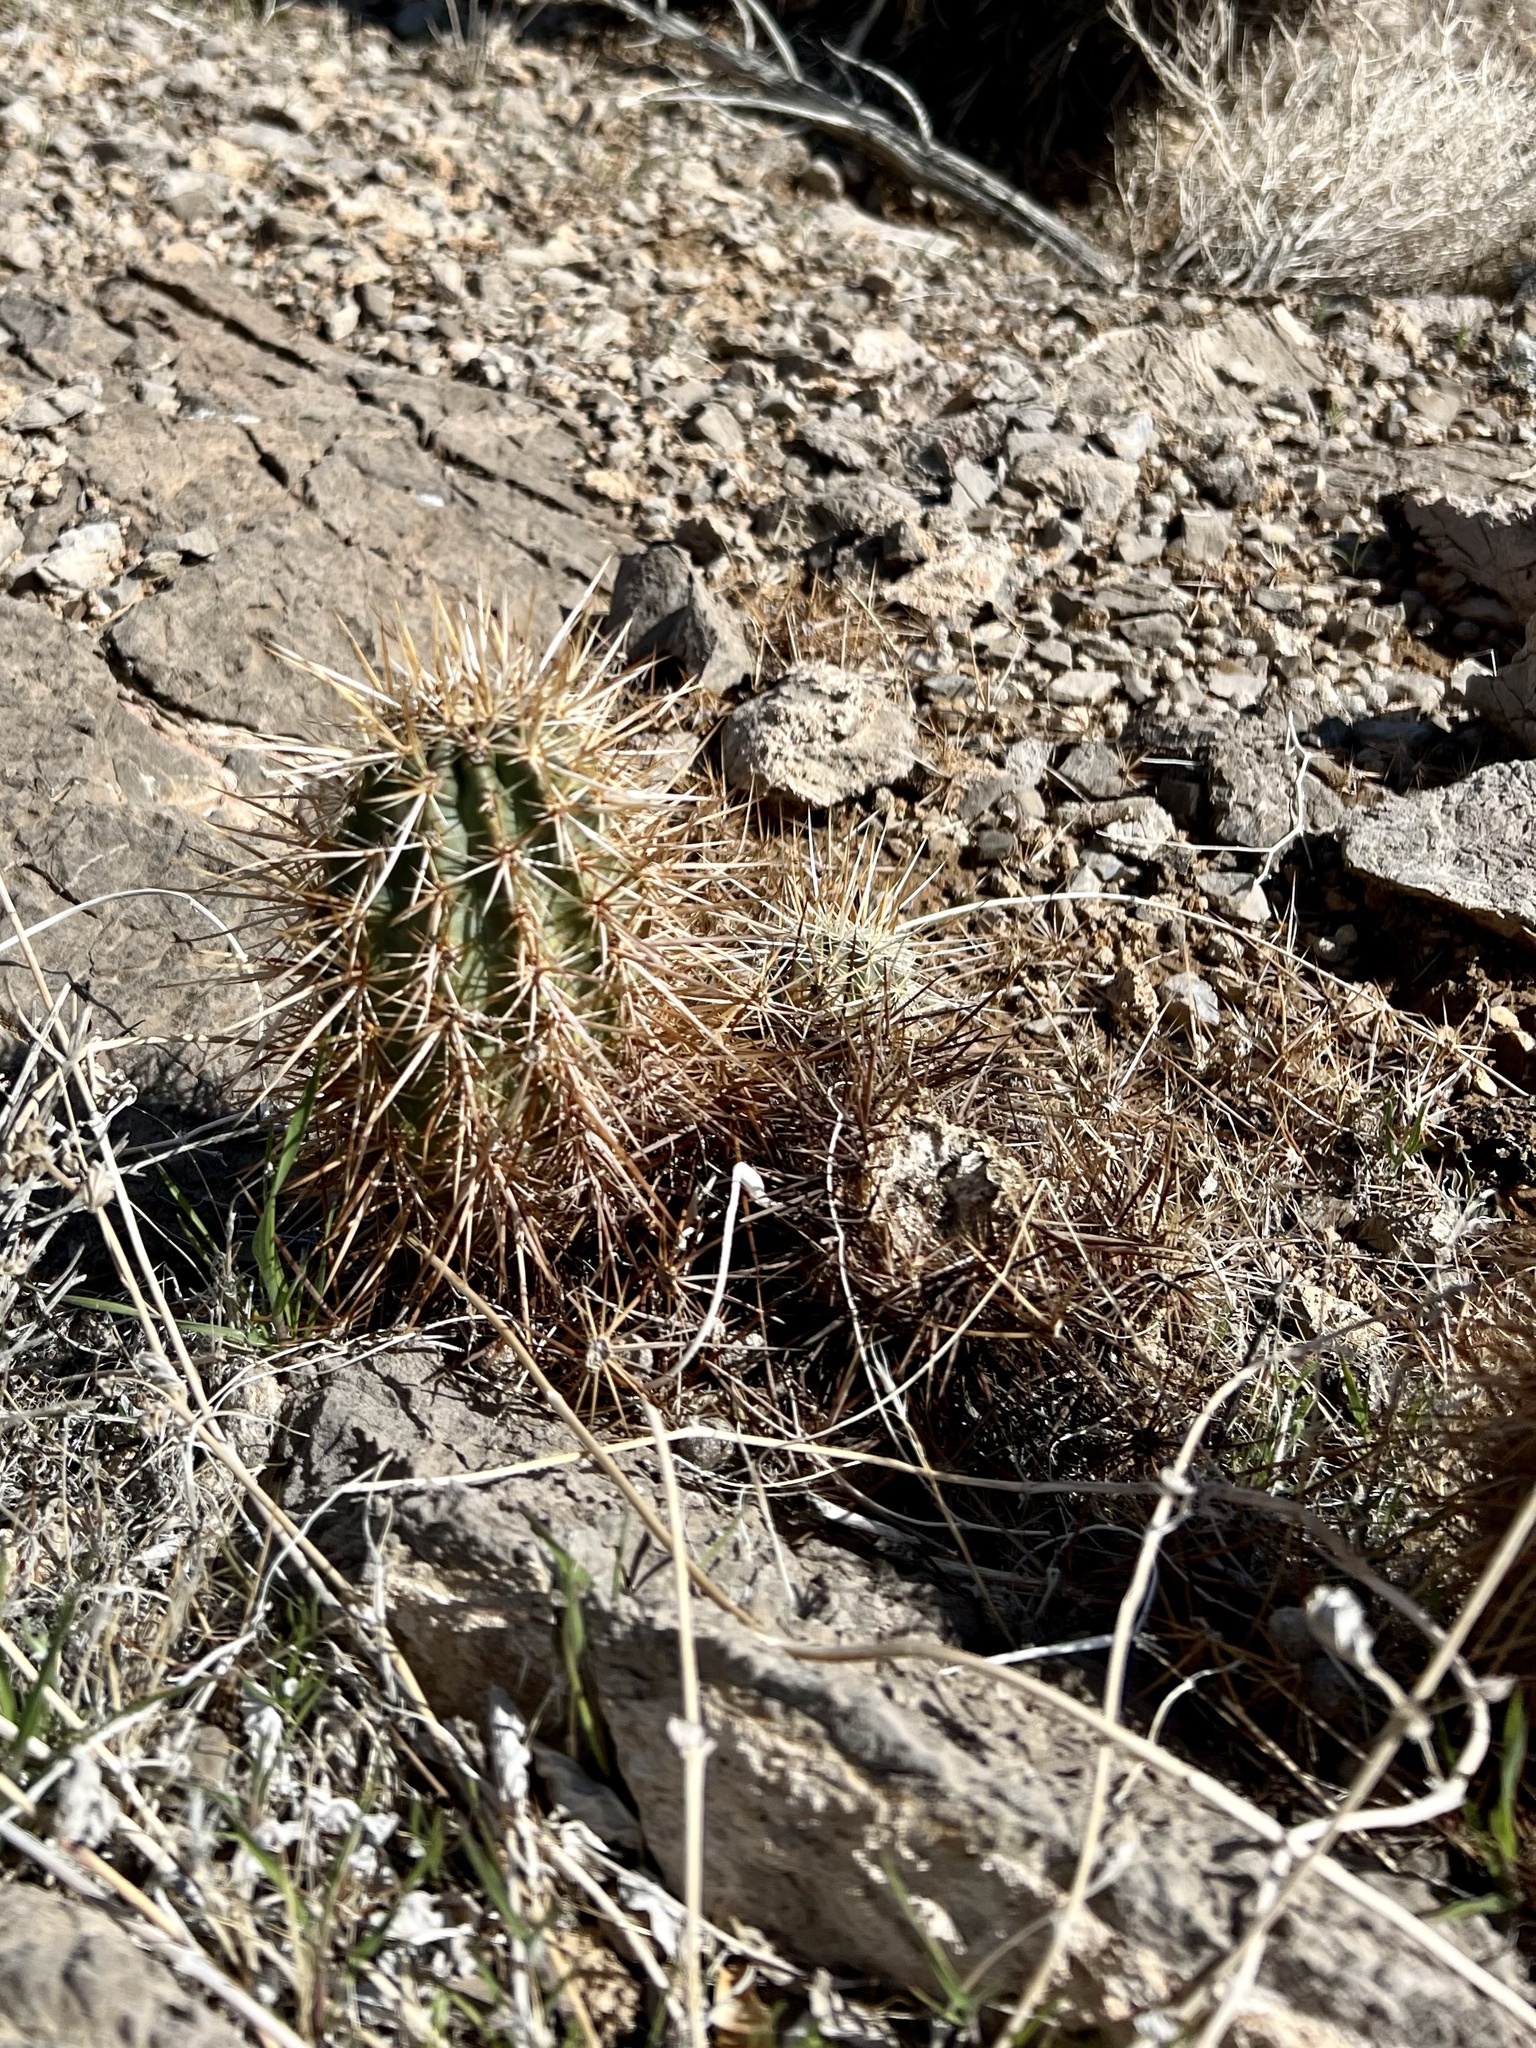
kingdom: Plantae
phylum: Tracheophyta
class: Magnoliopsida
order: Caryophyllales
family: Cactaceae
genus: Echinocereus
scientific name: Echinocereus engelmannii
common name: Engelmann's hedgehog cactus
